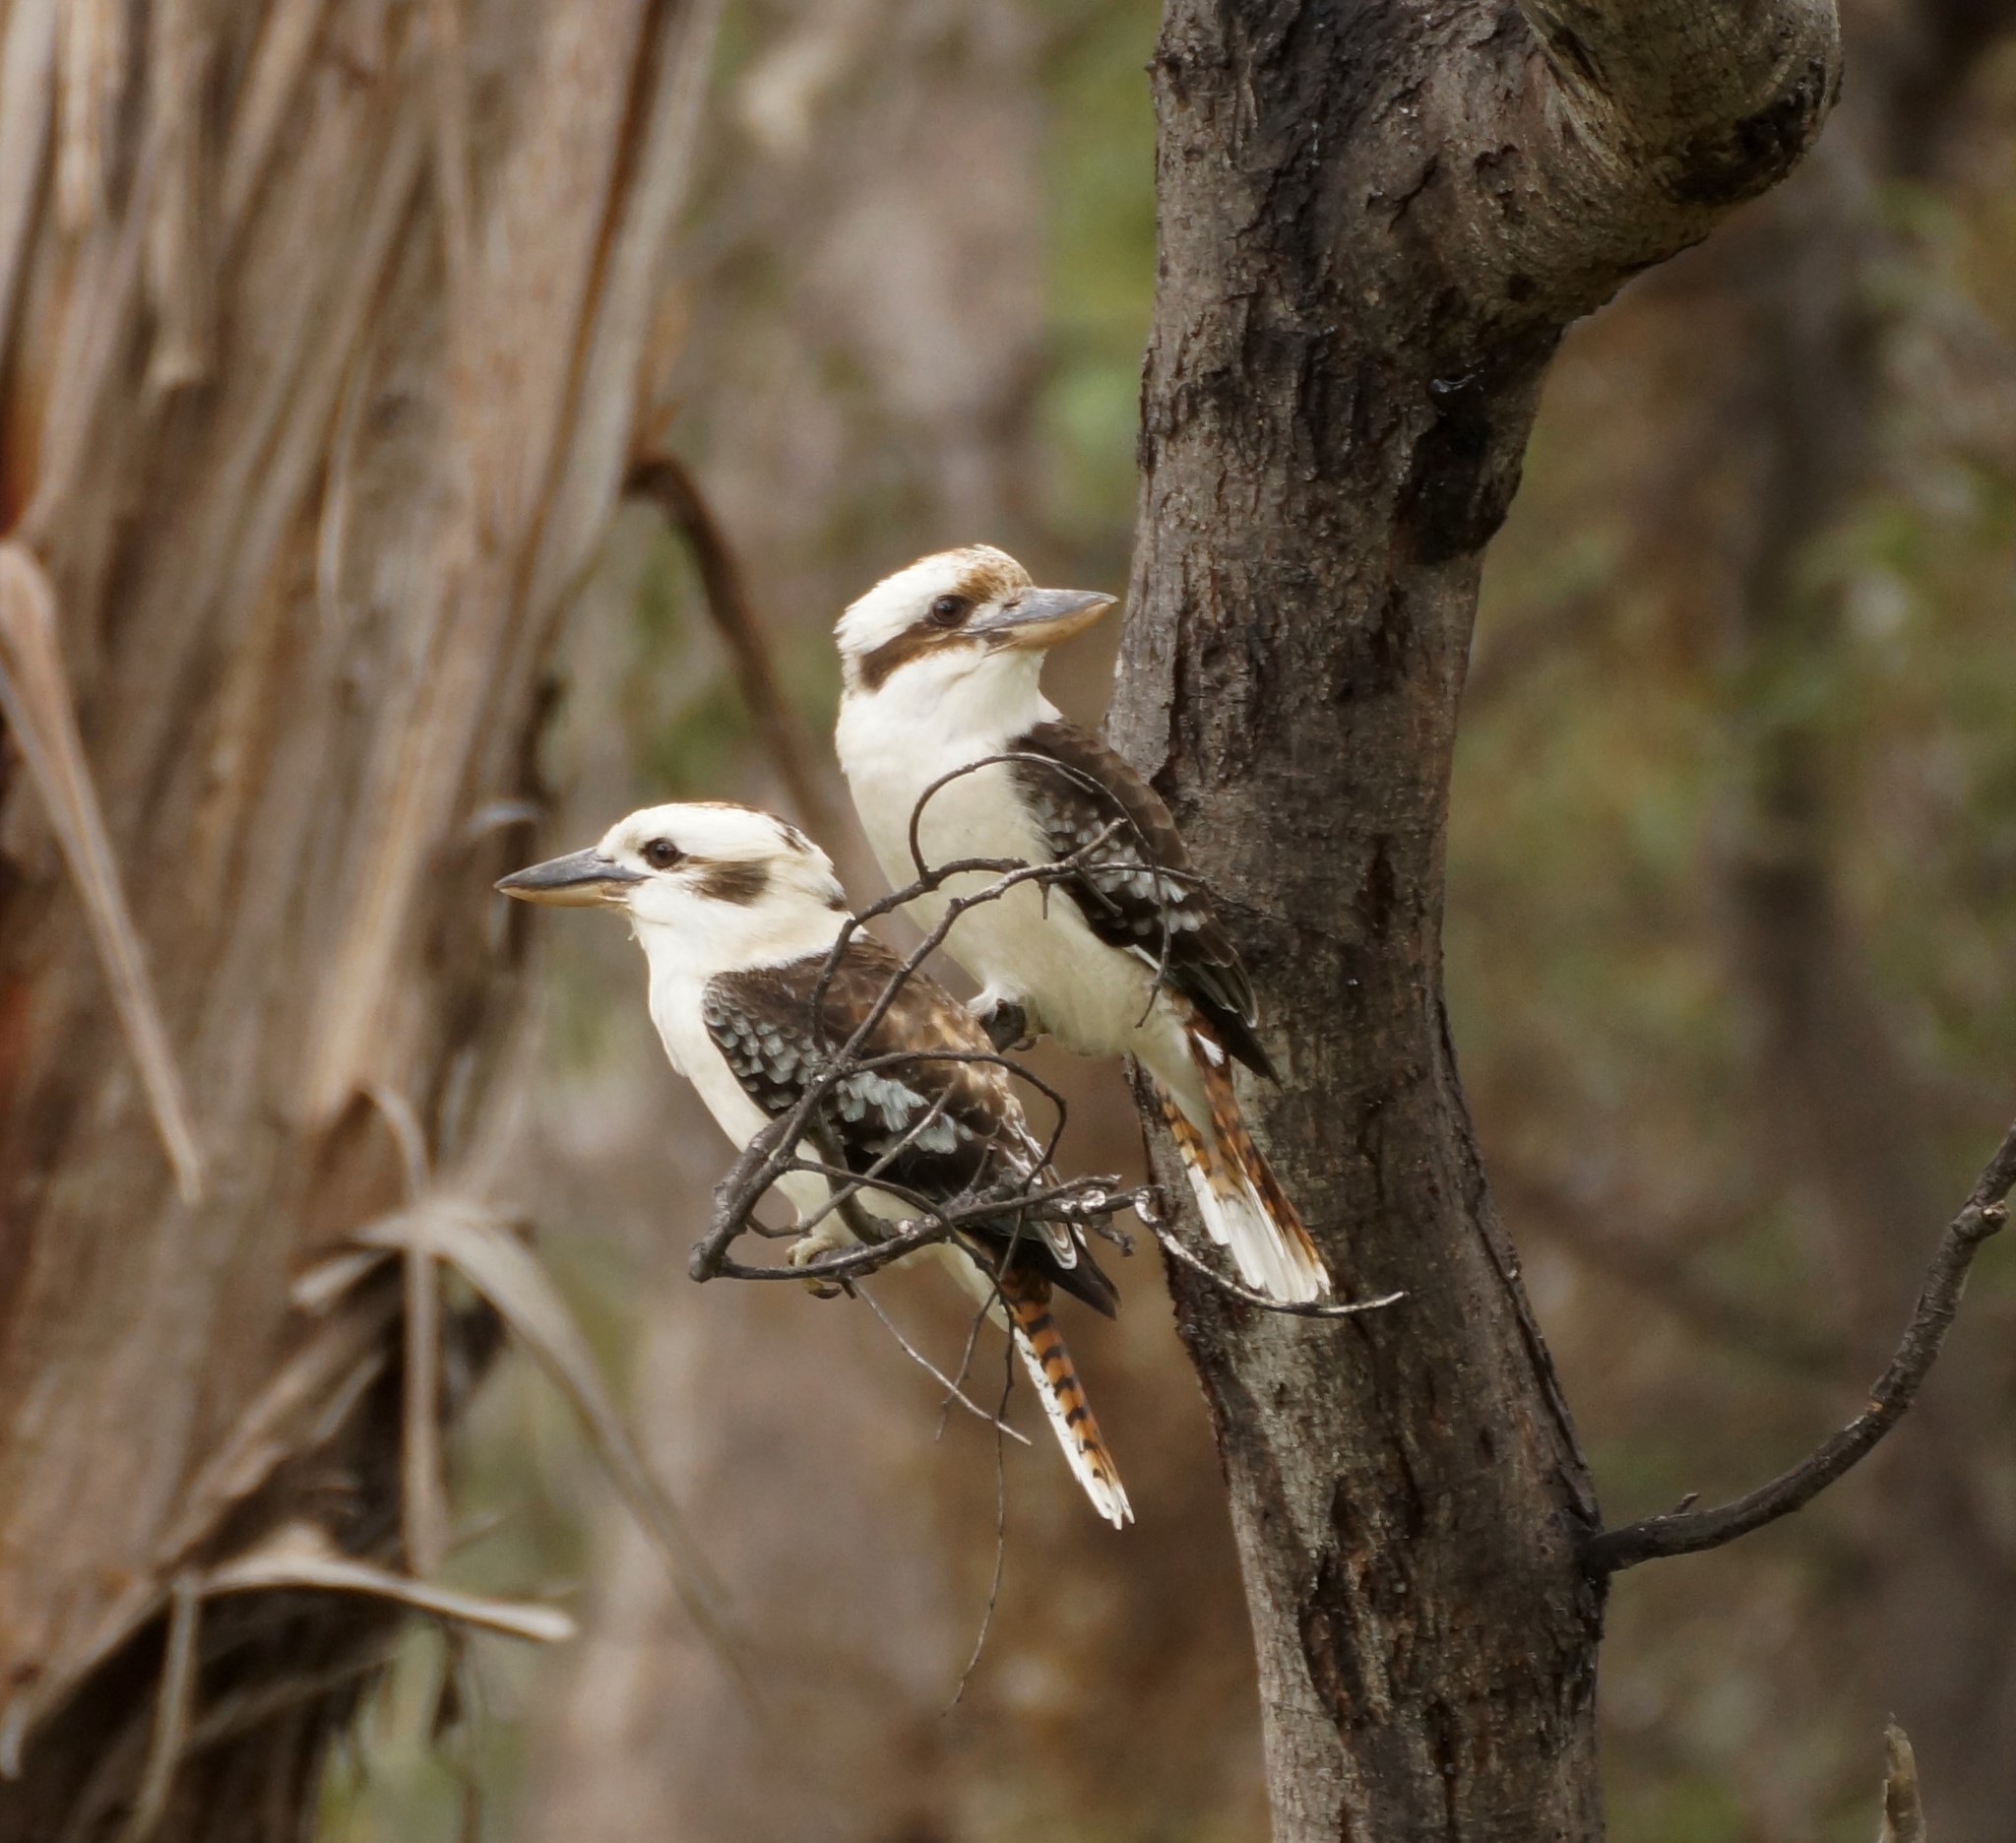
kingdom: Animalia
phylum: Chordata
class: Aves
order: Coraciiformes
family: Alcedinidae
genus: Dacelo
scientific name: Dacelo novaeguineae
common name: Laughing kookaburra
